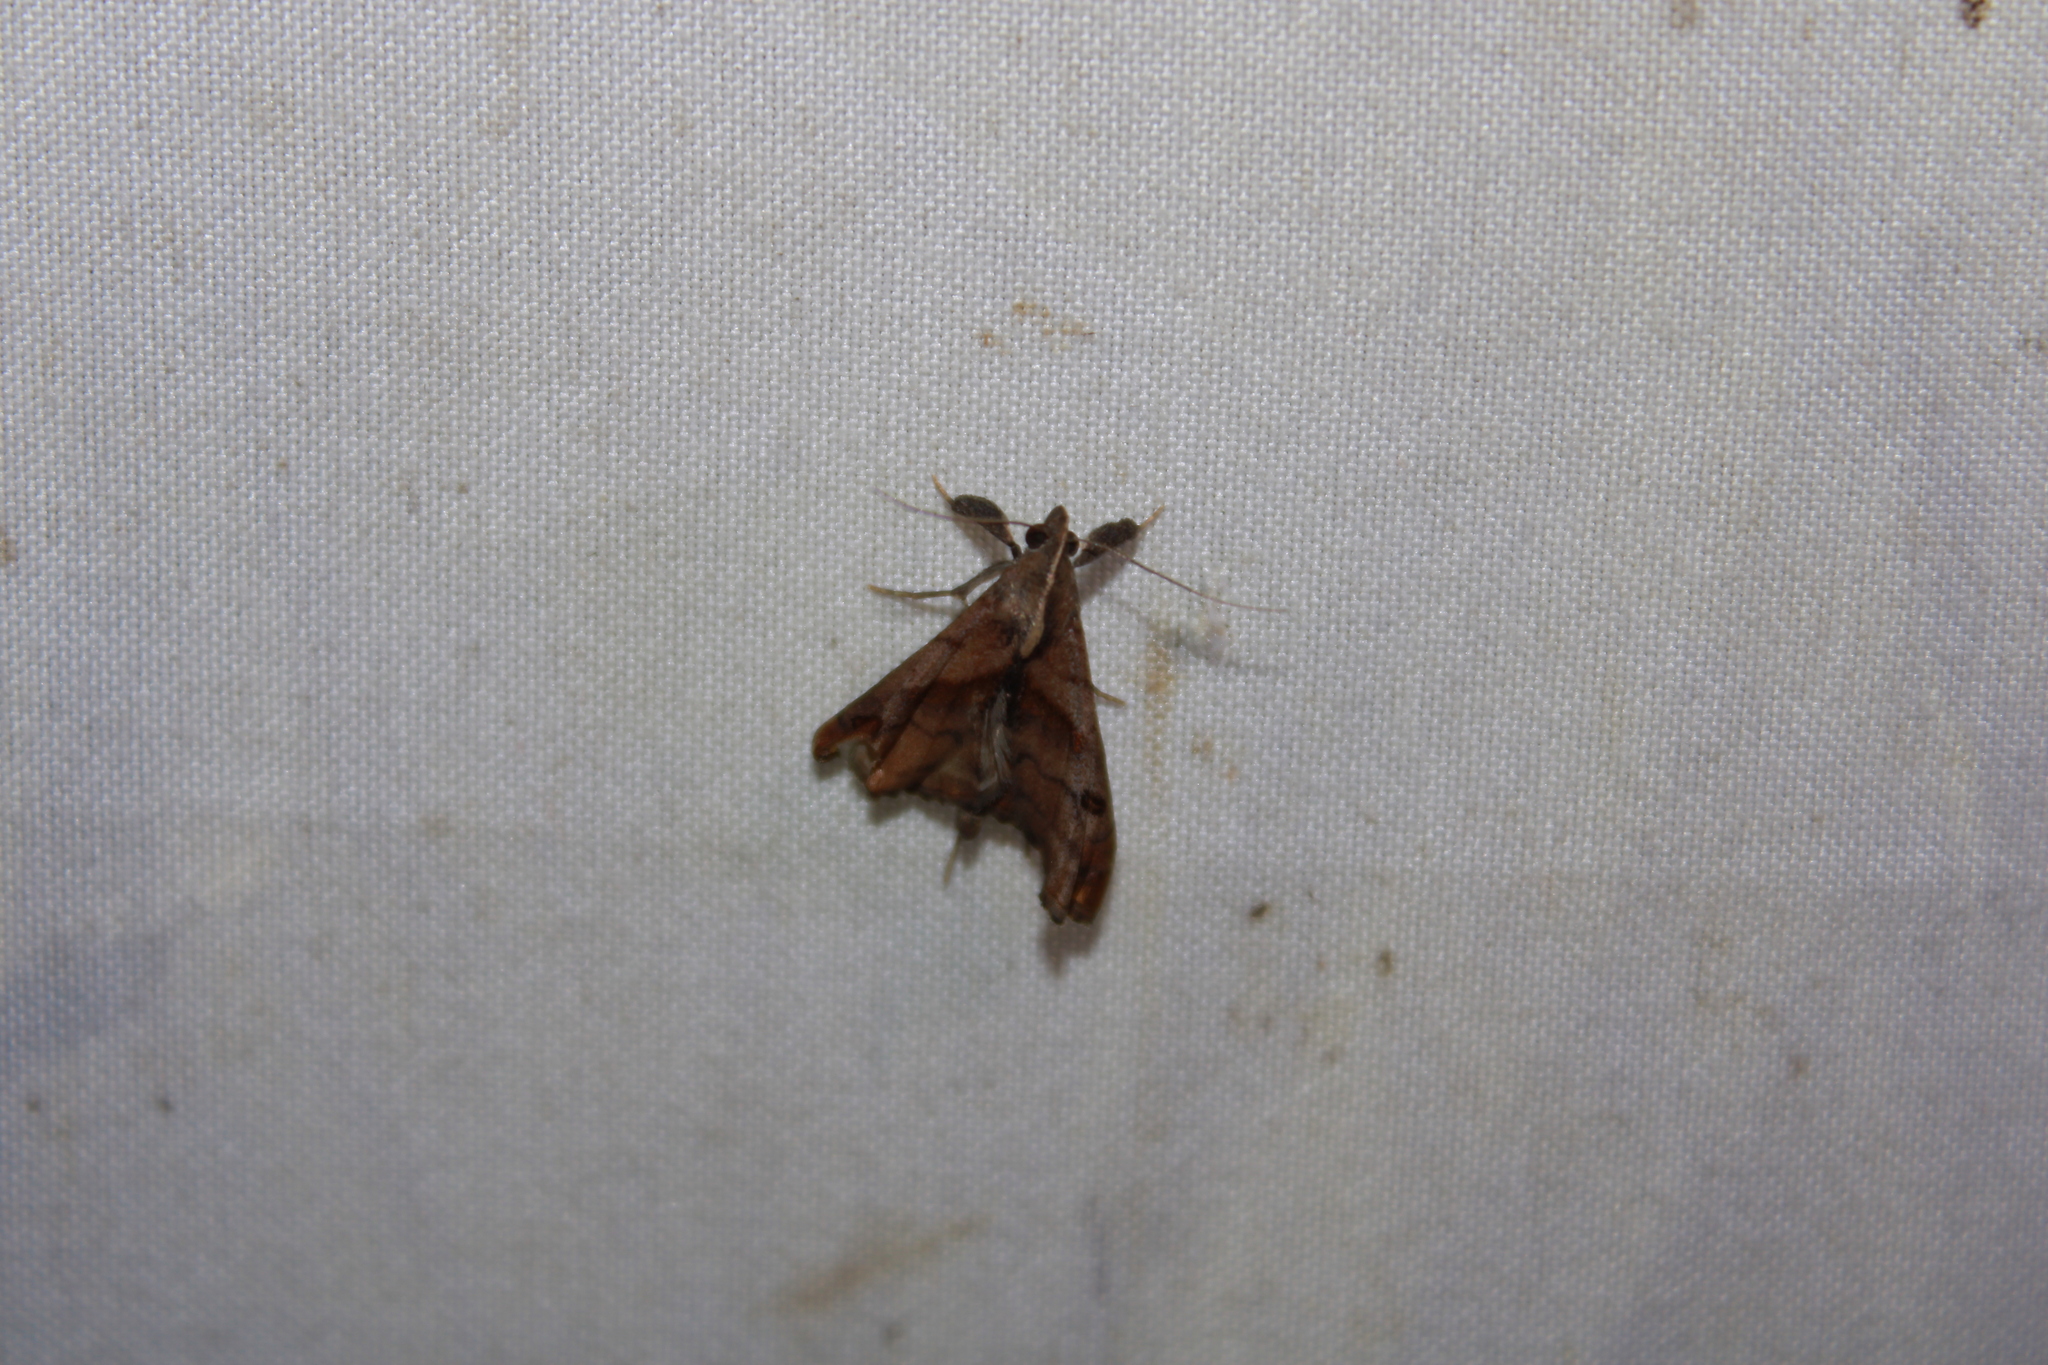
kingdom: Animalia
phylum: Arthropoda
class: Insecta
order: Lepidoptera
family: Erebidae
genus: Palthis
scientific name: Palthis angulalis
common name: Dark-spotted palthis moth
